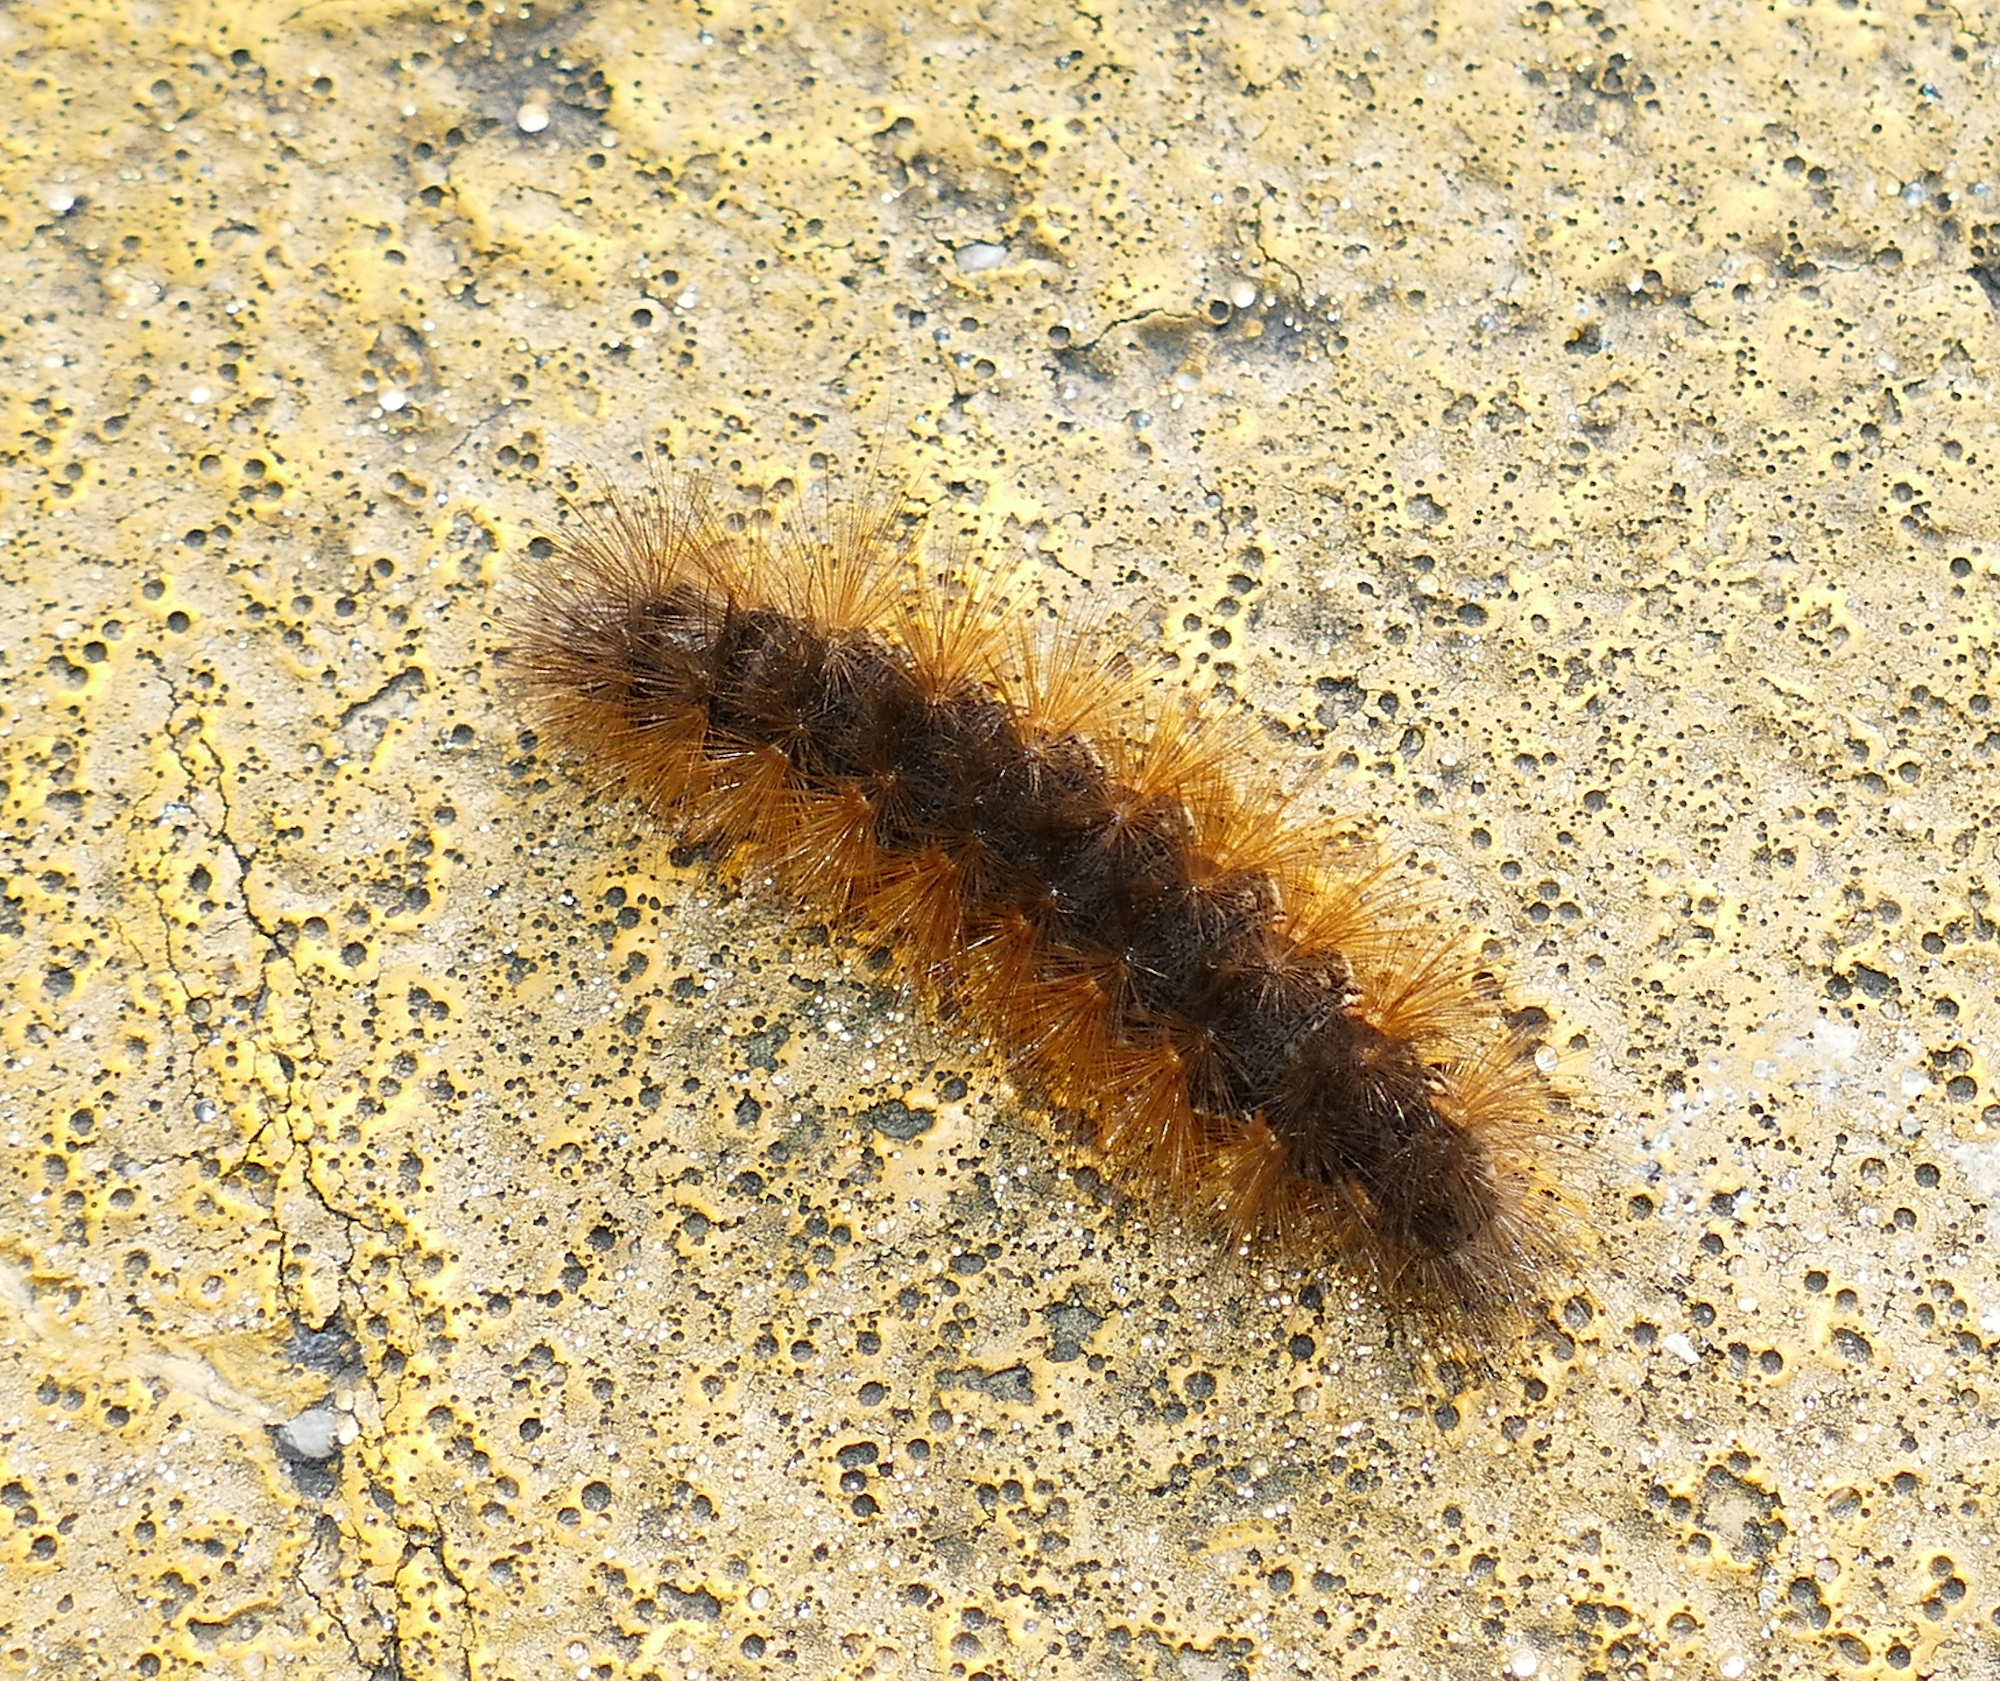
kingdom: Animalia
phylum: Arthropoda
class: Insecta
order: Lepidoptera
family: Erebidae
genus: Estigmene
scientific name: Estigmene acrea
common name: Salt marsh moth
